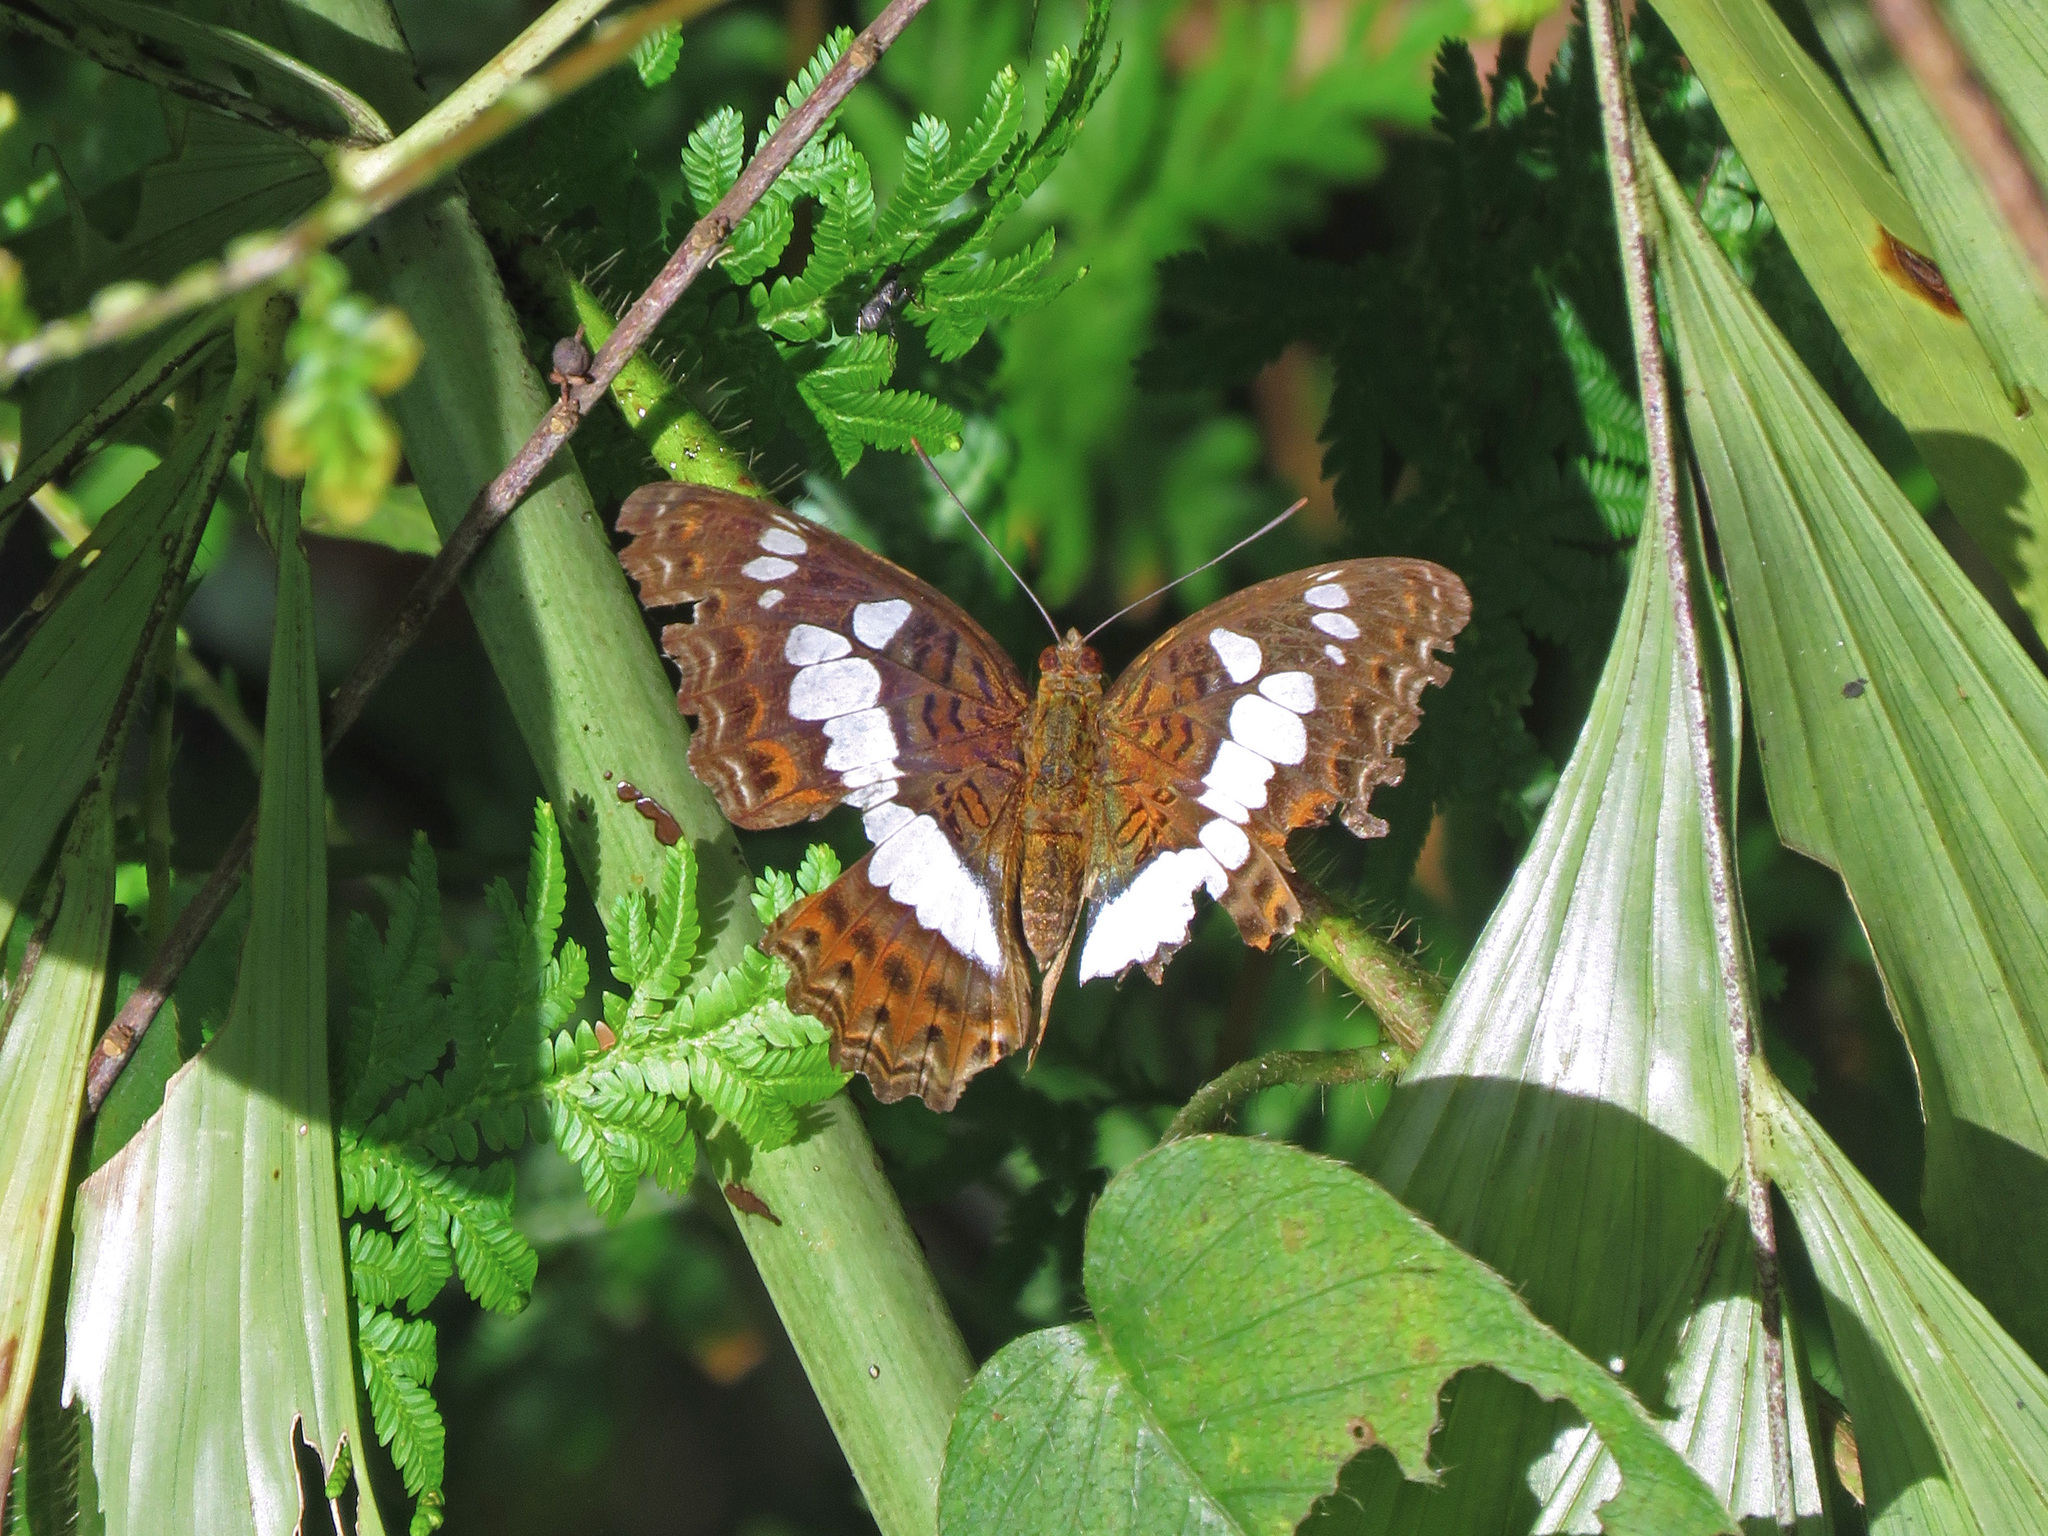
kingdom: Animalia
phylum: Arthropoda
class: Insecta
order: Lepidoptera
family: Nymphalidae
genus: Limenitis
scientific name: Limenitis Moduza procris
